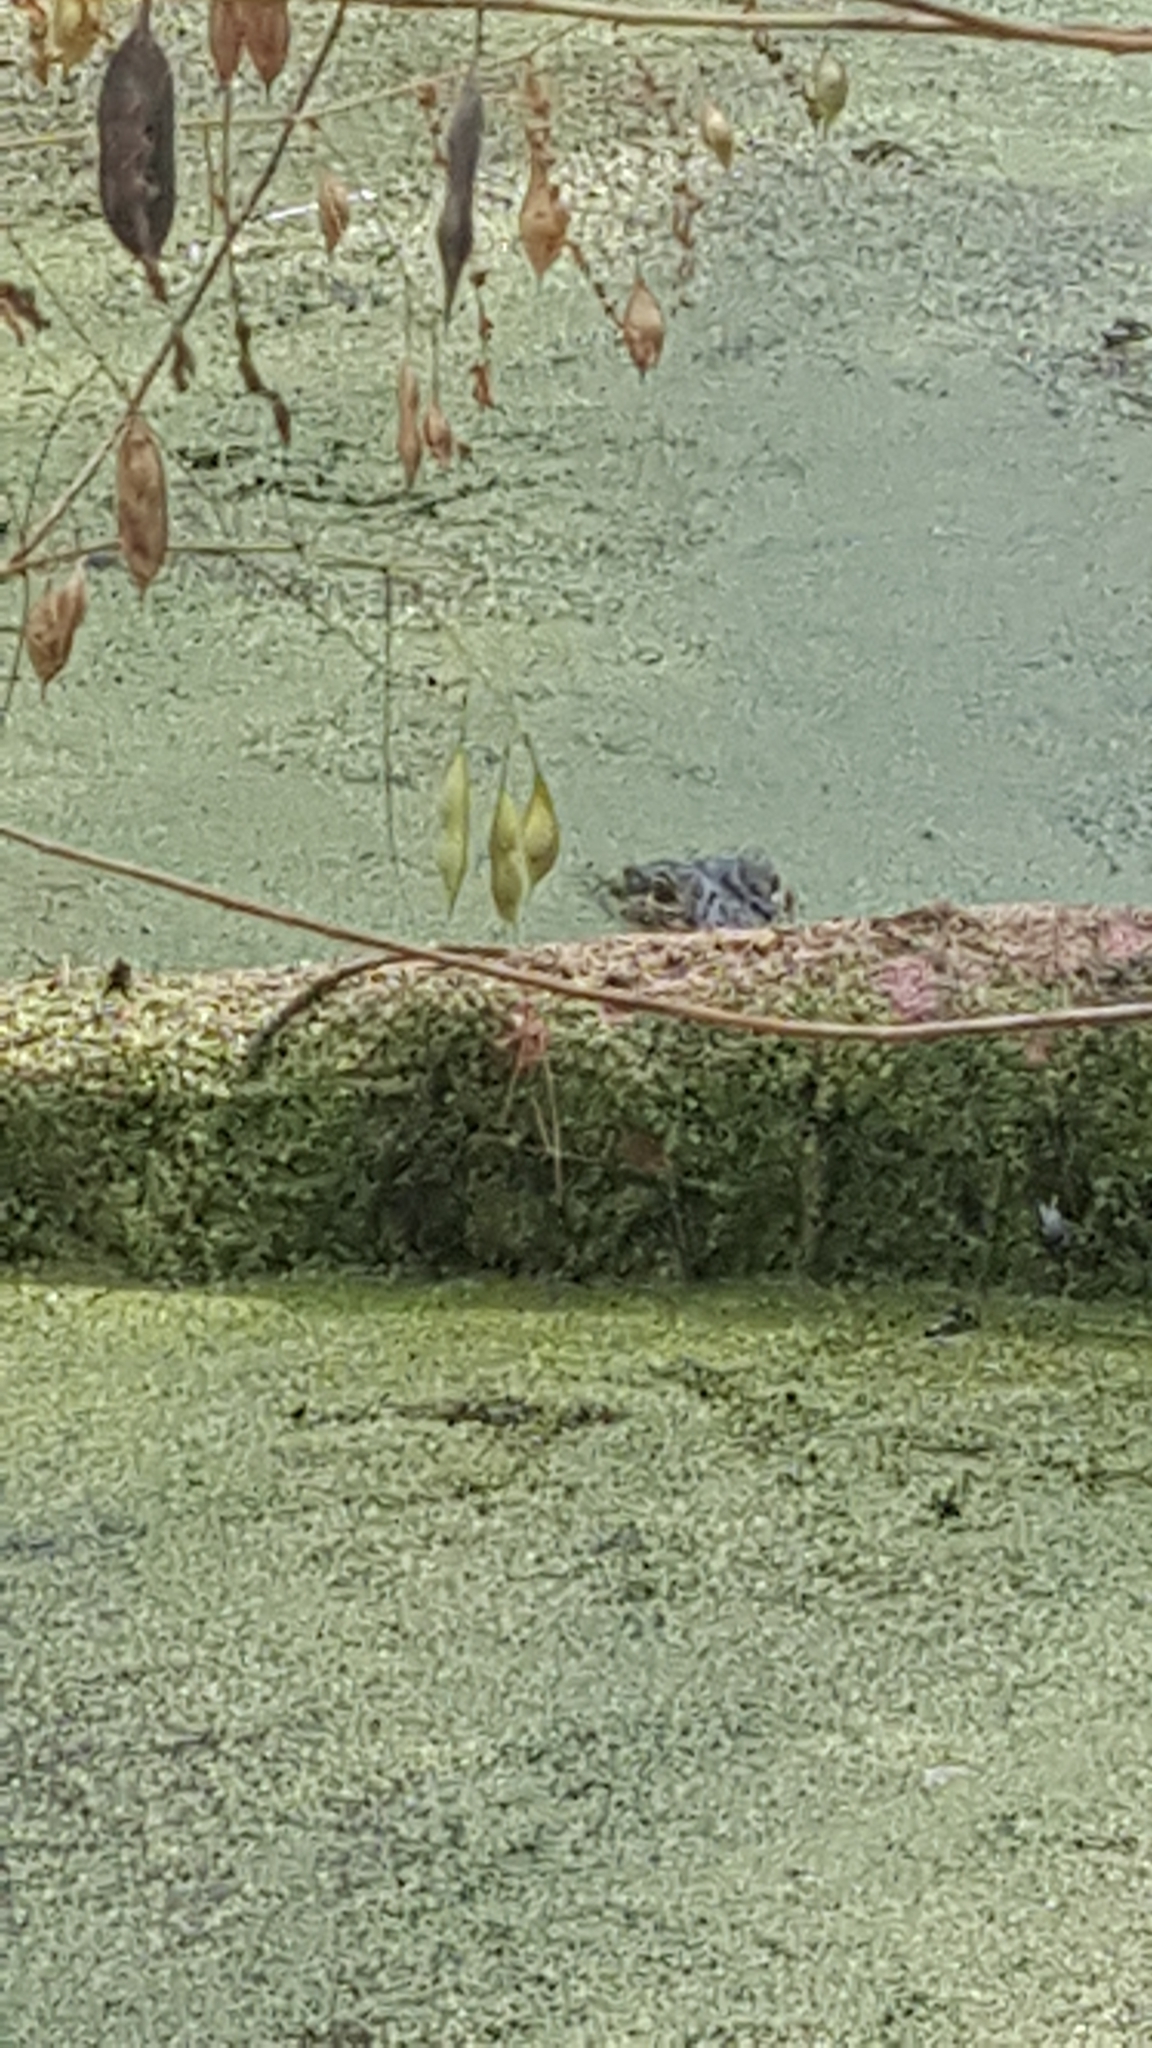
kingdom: Animalia
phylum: Chordata
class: Crocodylia
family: Alligatoridae
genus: Alligator
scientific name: Alligator mississippiensis
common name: American alligator
